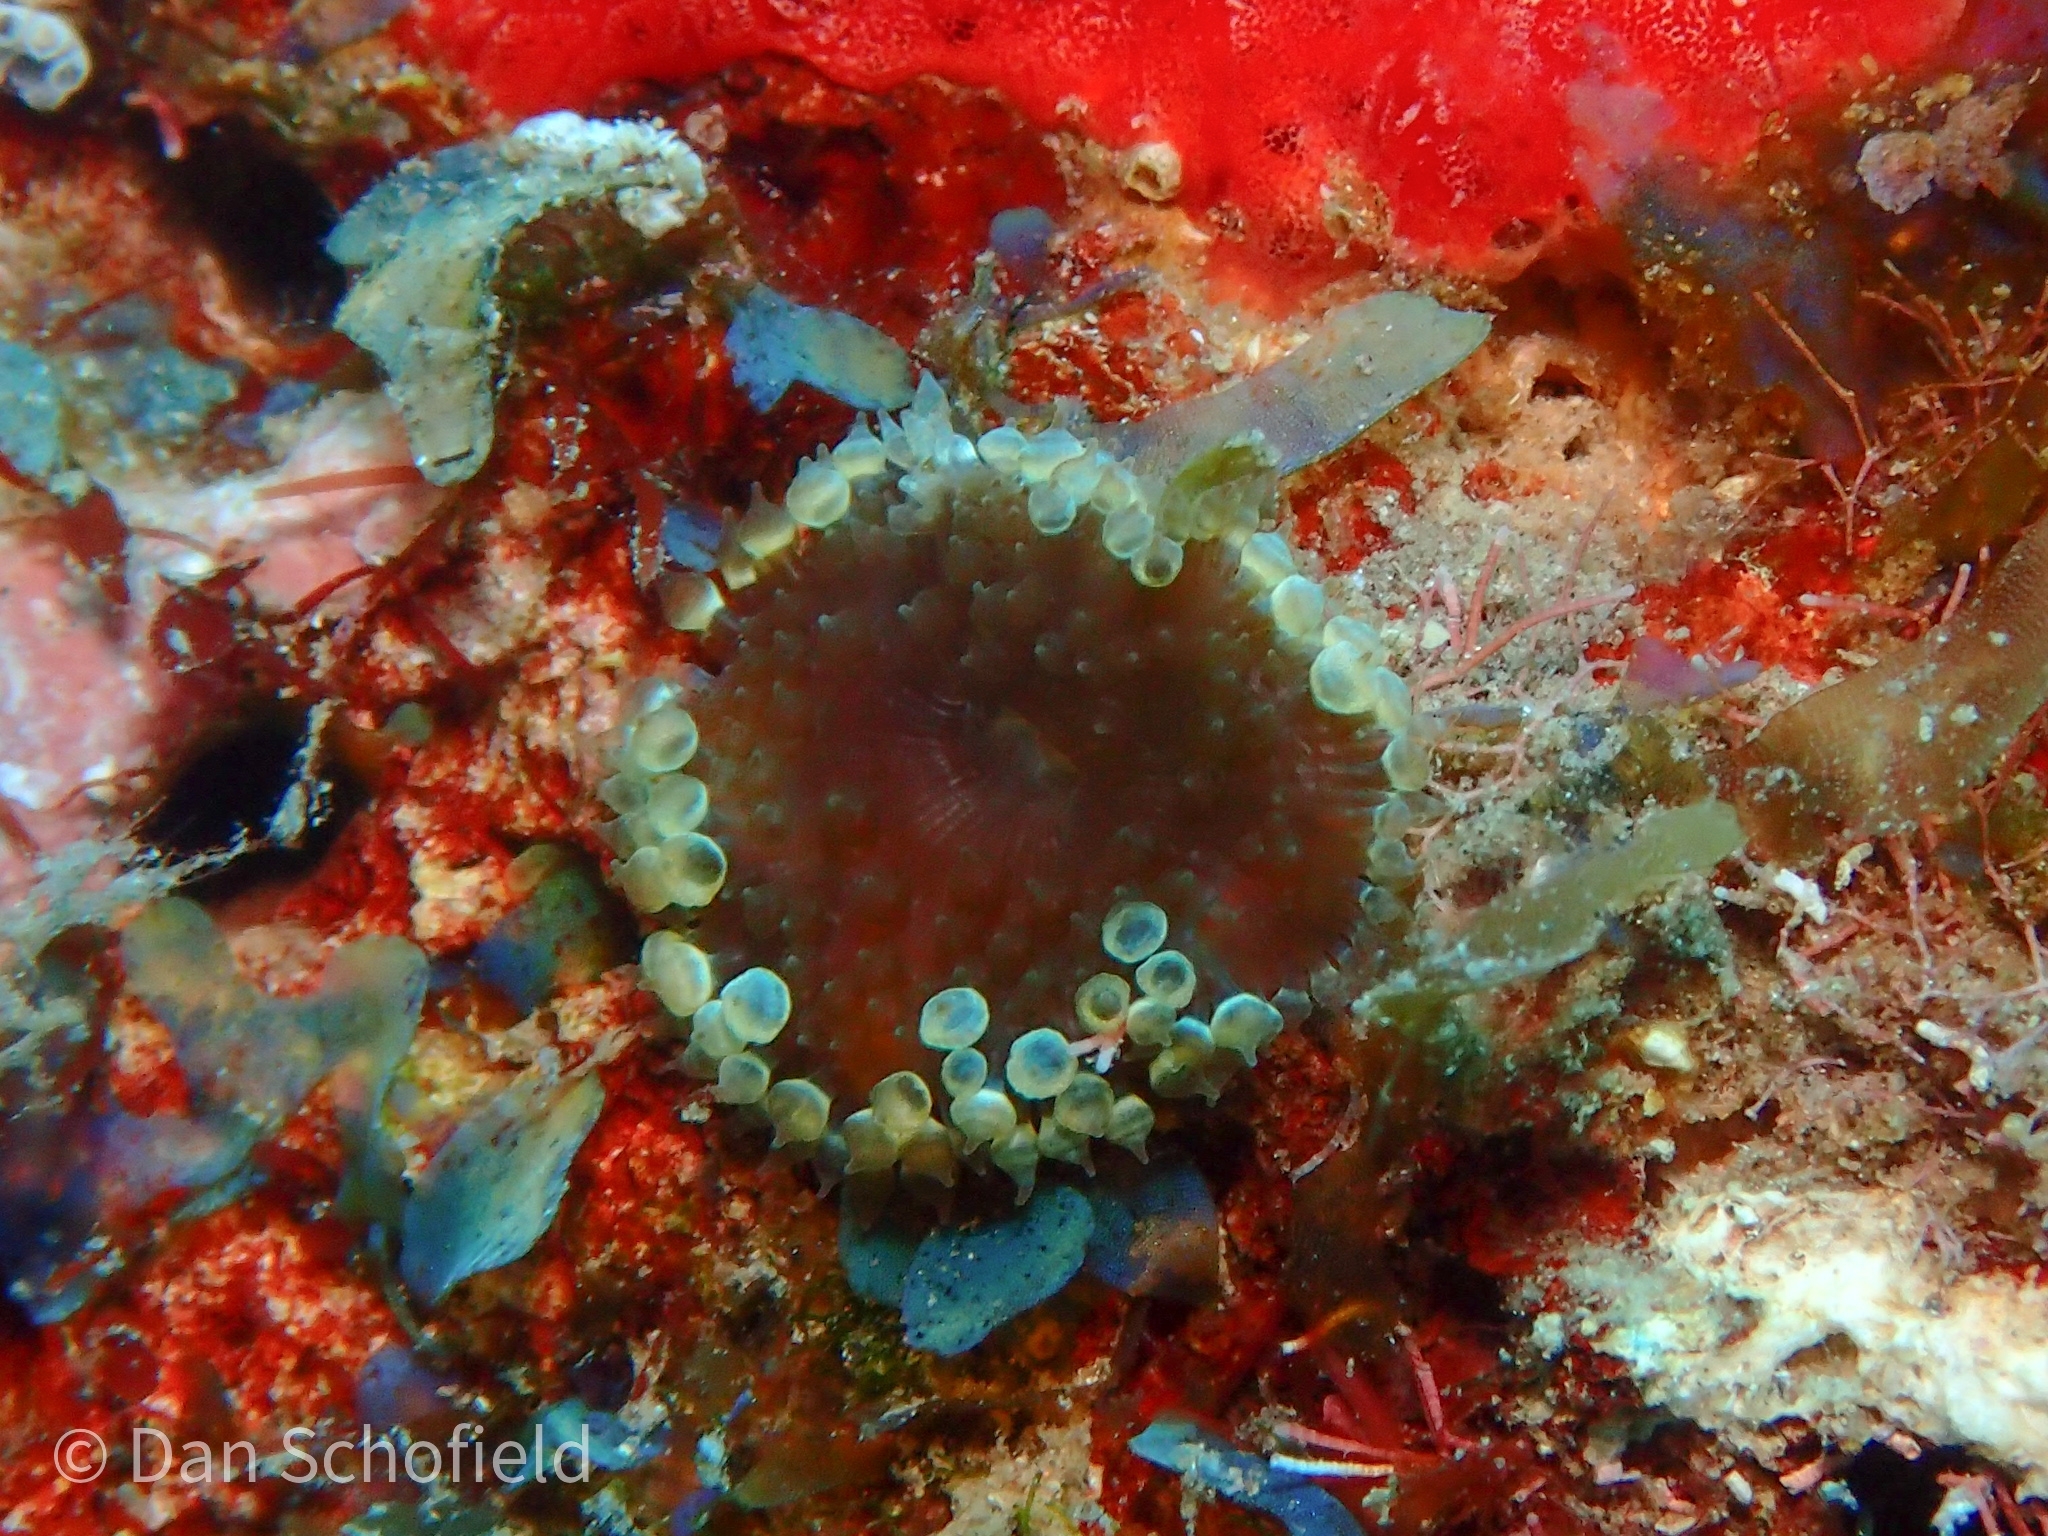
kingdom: Animalia
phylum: Cnidaria
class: Anthozoa
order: Actiniaria
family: Aiptasiidae
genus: Bellactis
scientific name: Bellactis caeruleus
